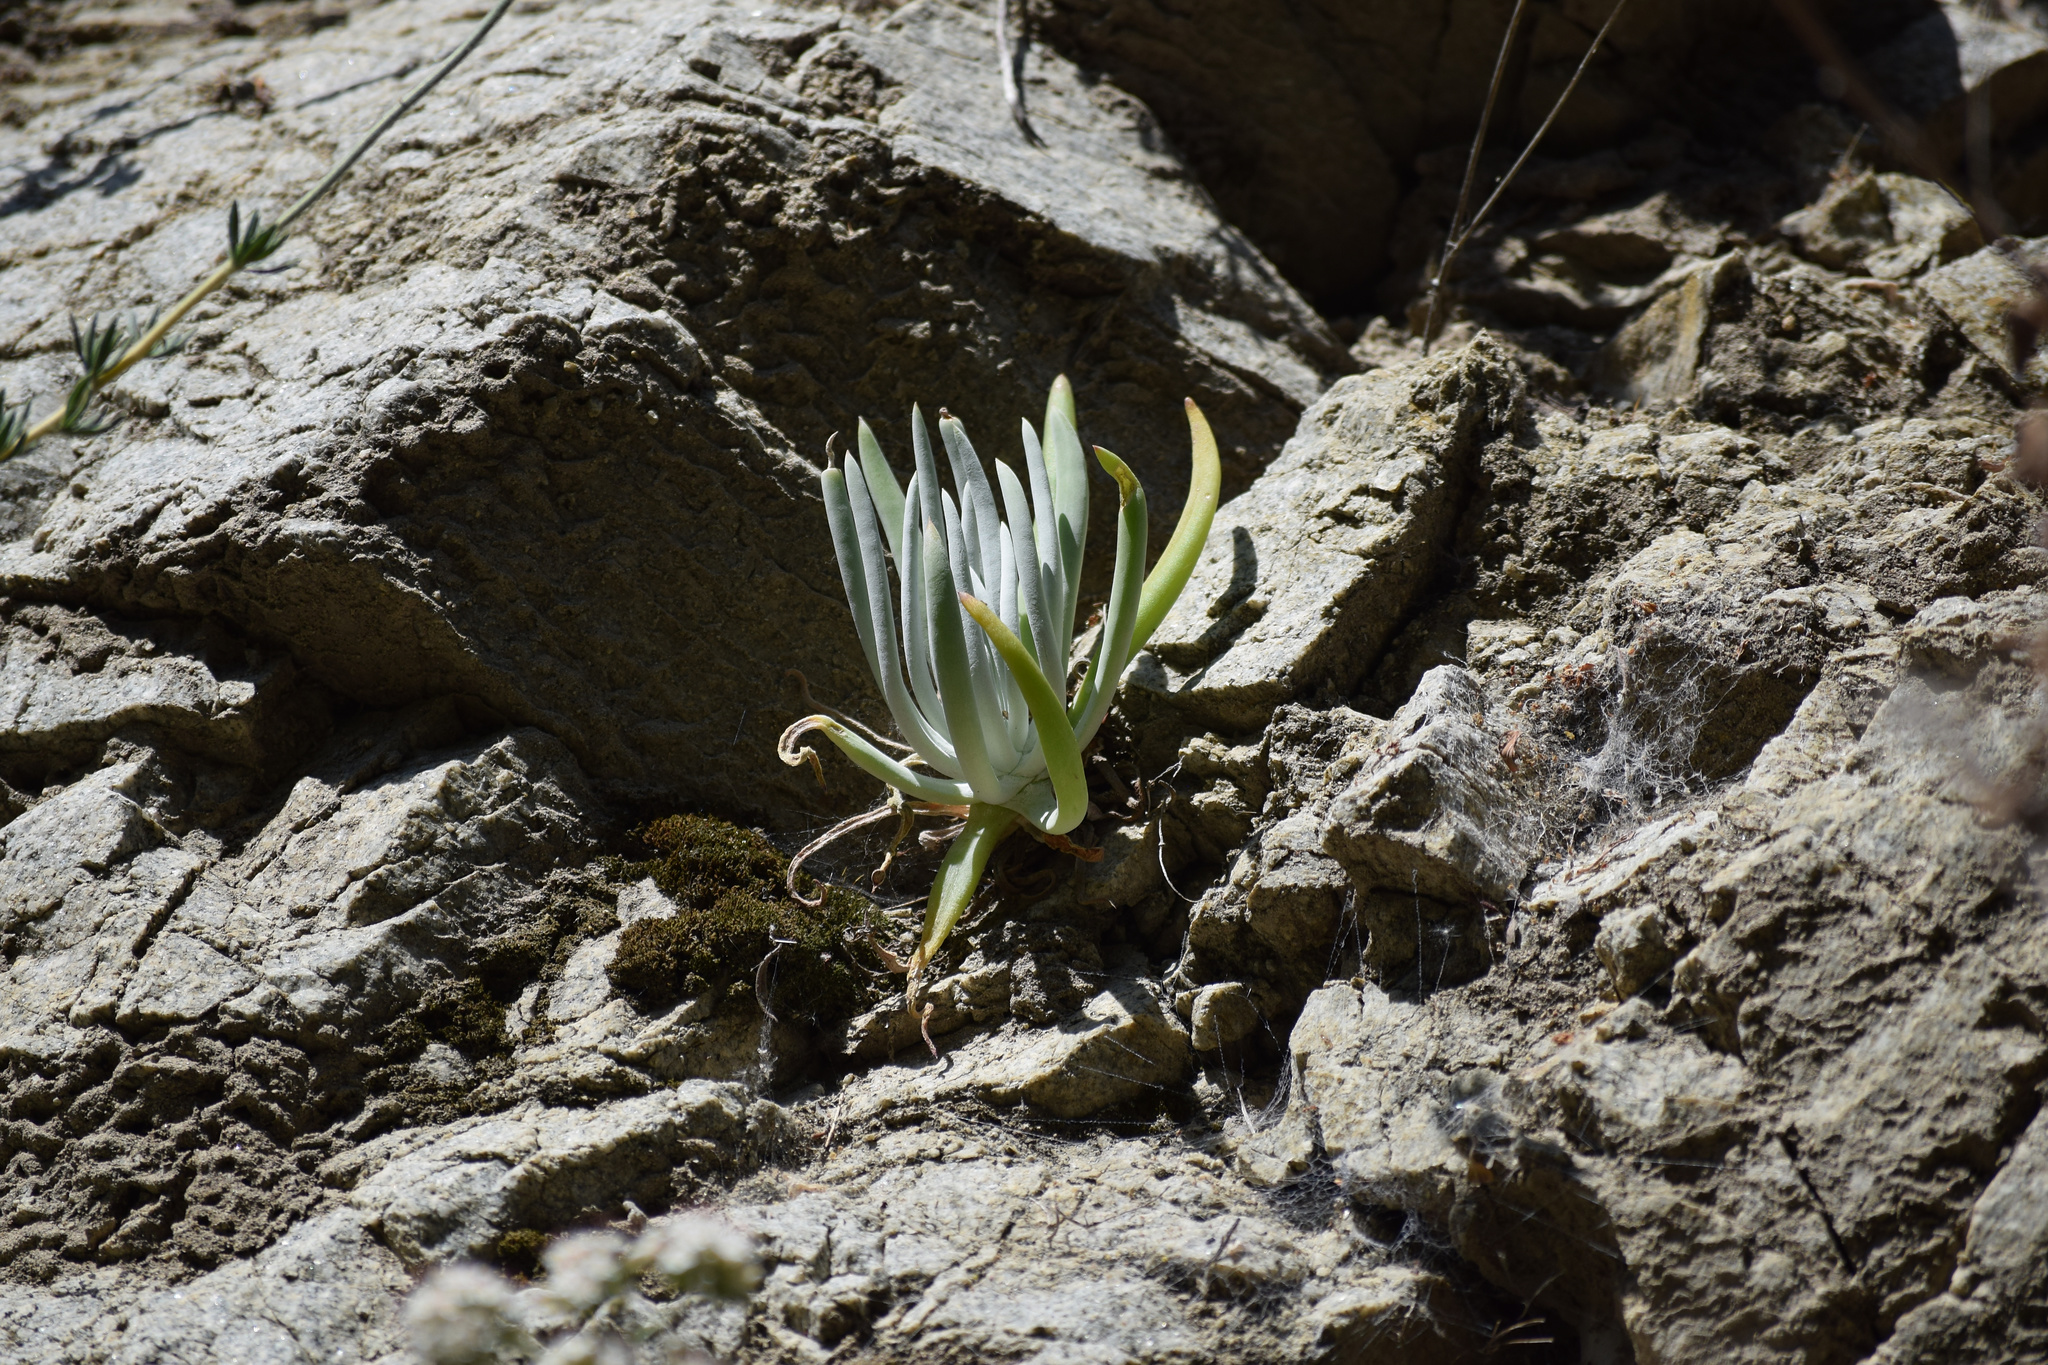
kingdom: Plantae
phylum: Tracheophyta
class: Magnoliopsida
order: Saxifragales
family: Crassulaceae
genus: Dudleya
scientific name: Dudleya densiflora
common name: San gabriel mountains dudleya
